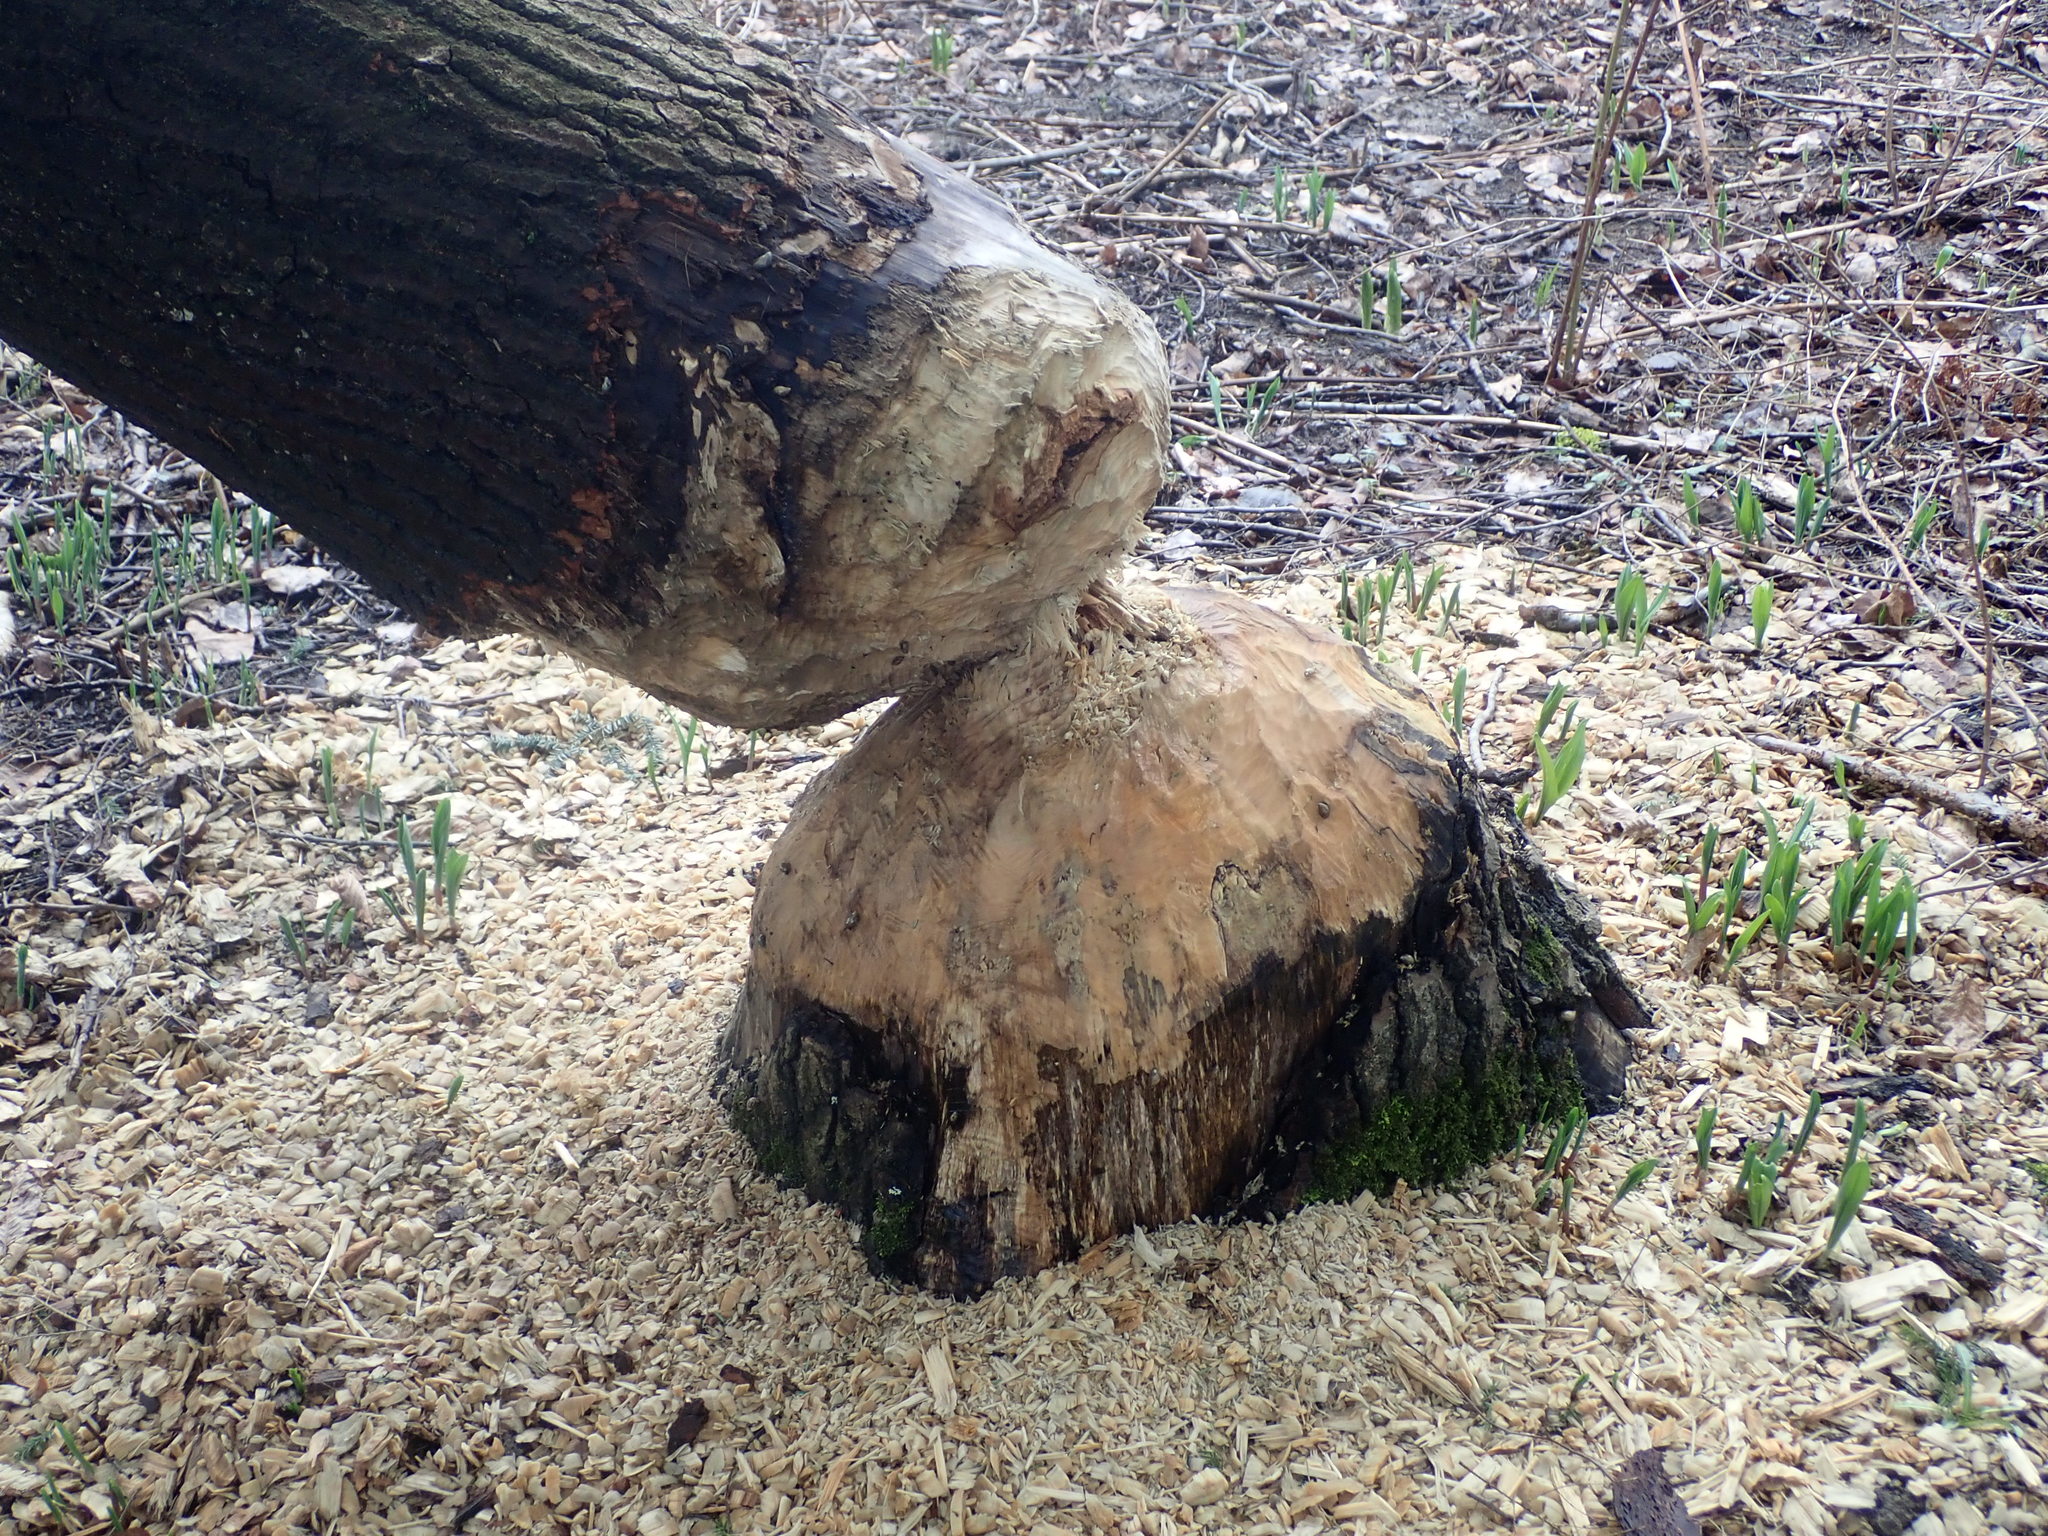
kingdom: Animalia
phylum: Chordata
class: Mammalia
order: Rodentia
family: Castoridae
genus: Castor
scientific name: Castor canadensis
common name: American beaver
